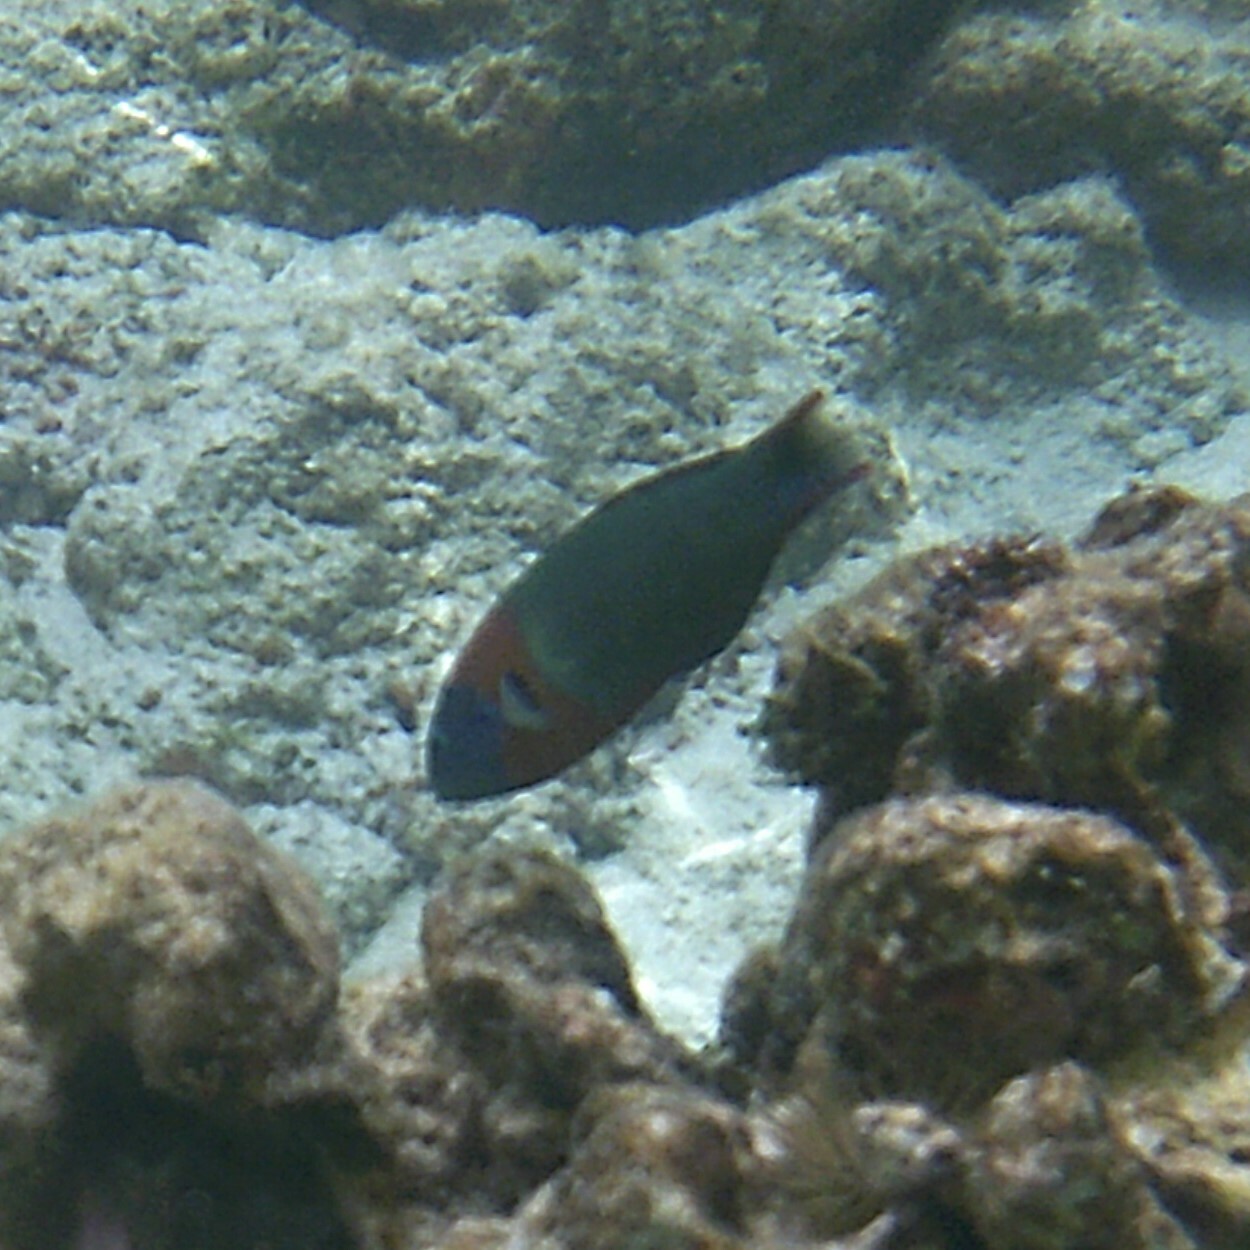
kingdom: Animalia
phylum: Chordata
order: Perciformes
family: Labridae
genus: Thalassoma
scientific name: Thalassoma duperrey
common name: Saddle wrasse
